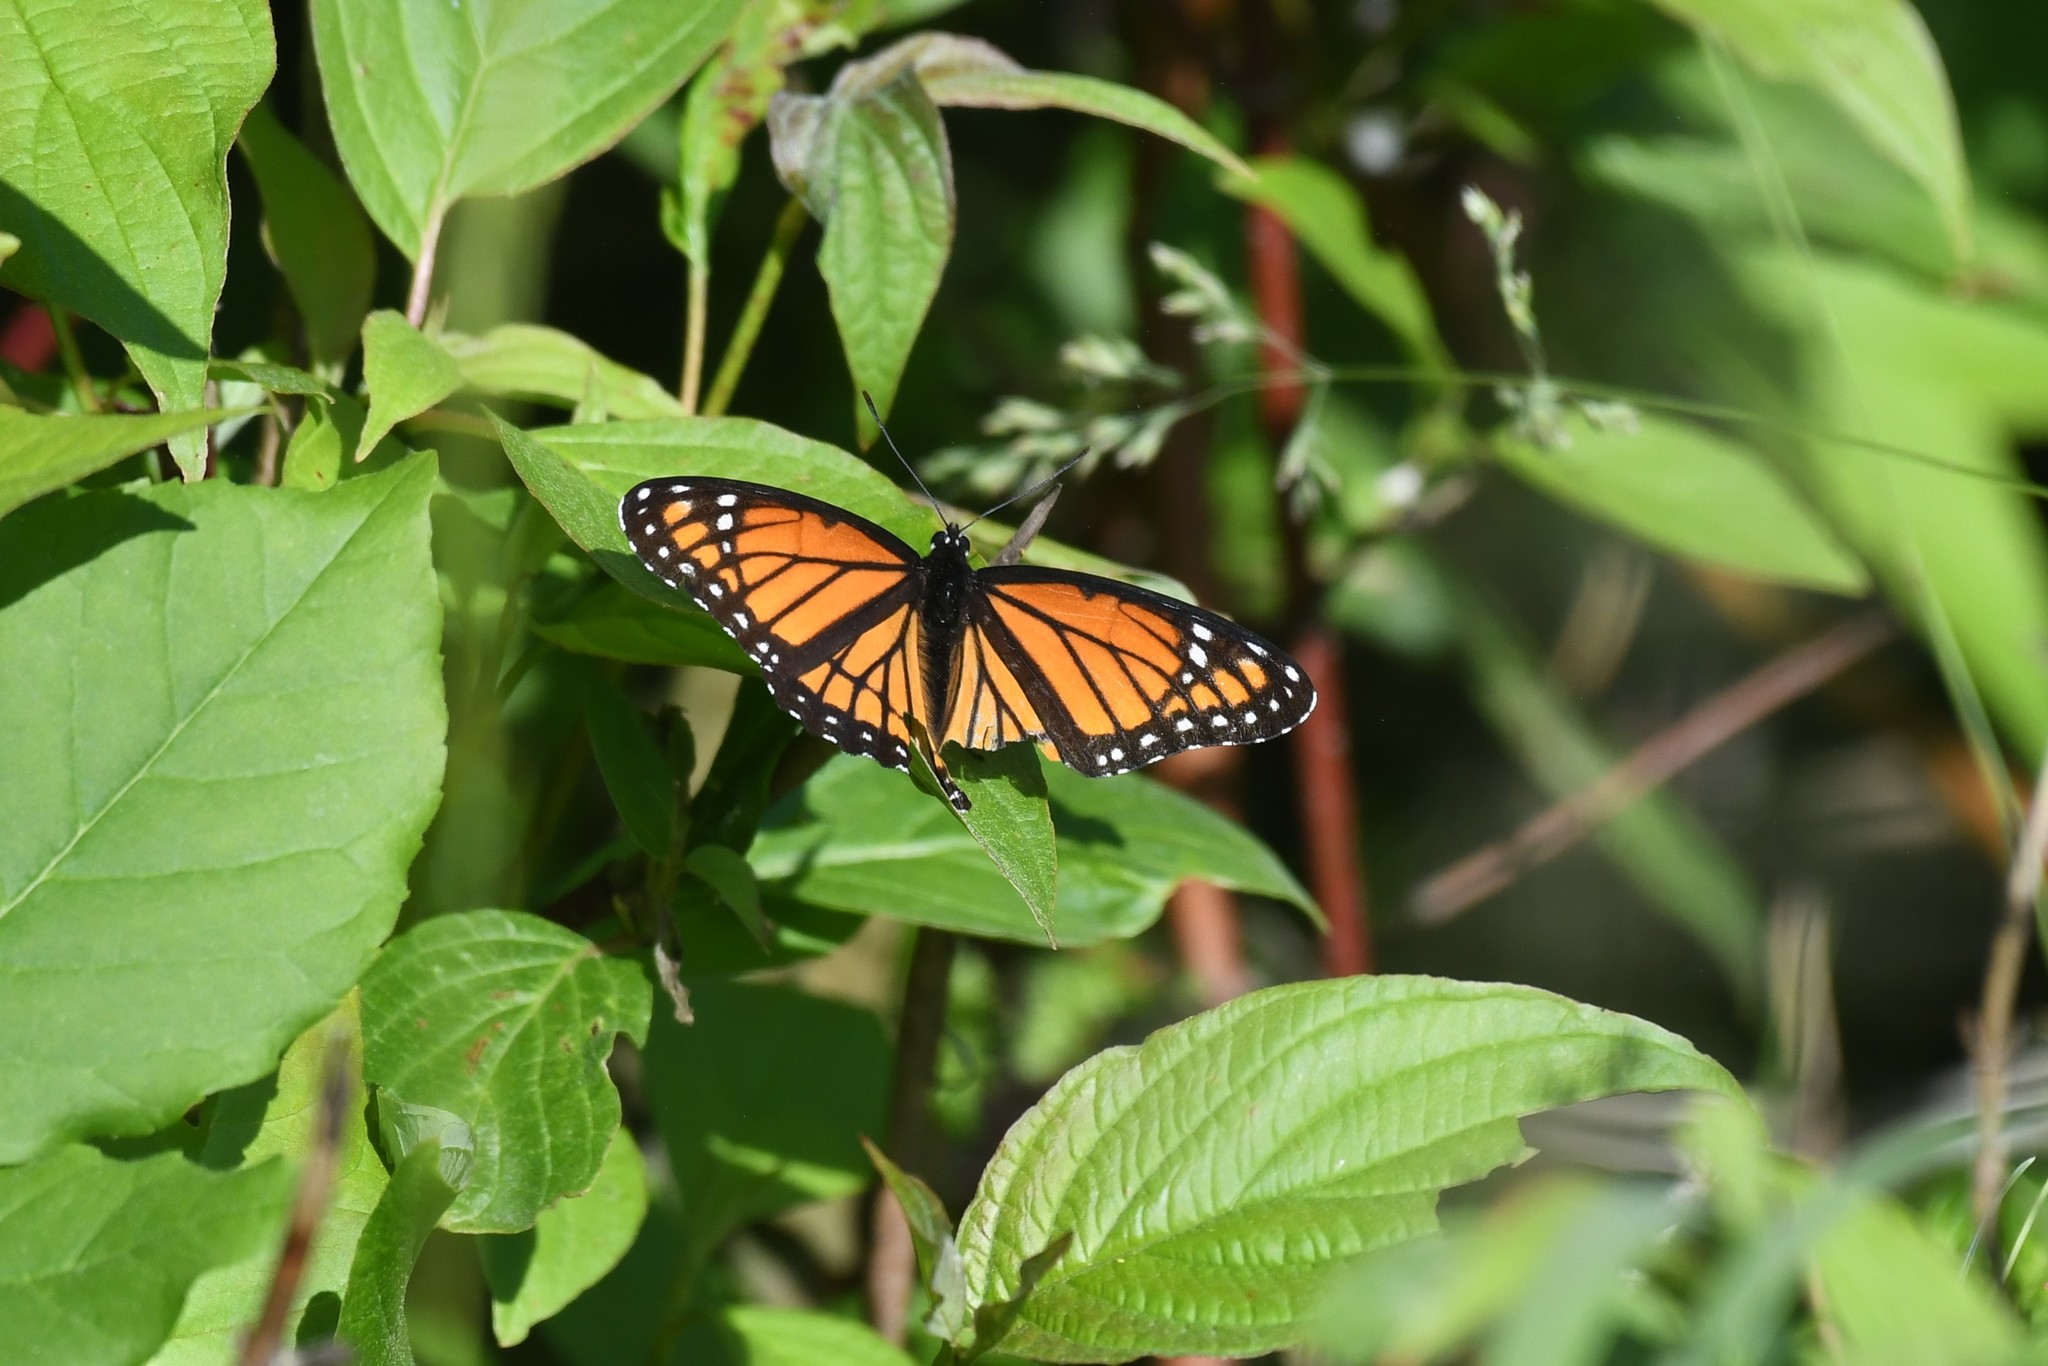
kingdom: Animalia
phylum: Arthropoda
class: Insecta
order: Lepidoptera
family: Nymphalidae
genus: Limenitis
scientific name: Limenitis archippus
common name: Viceroy
